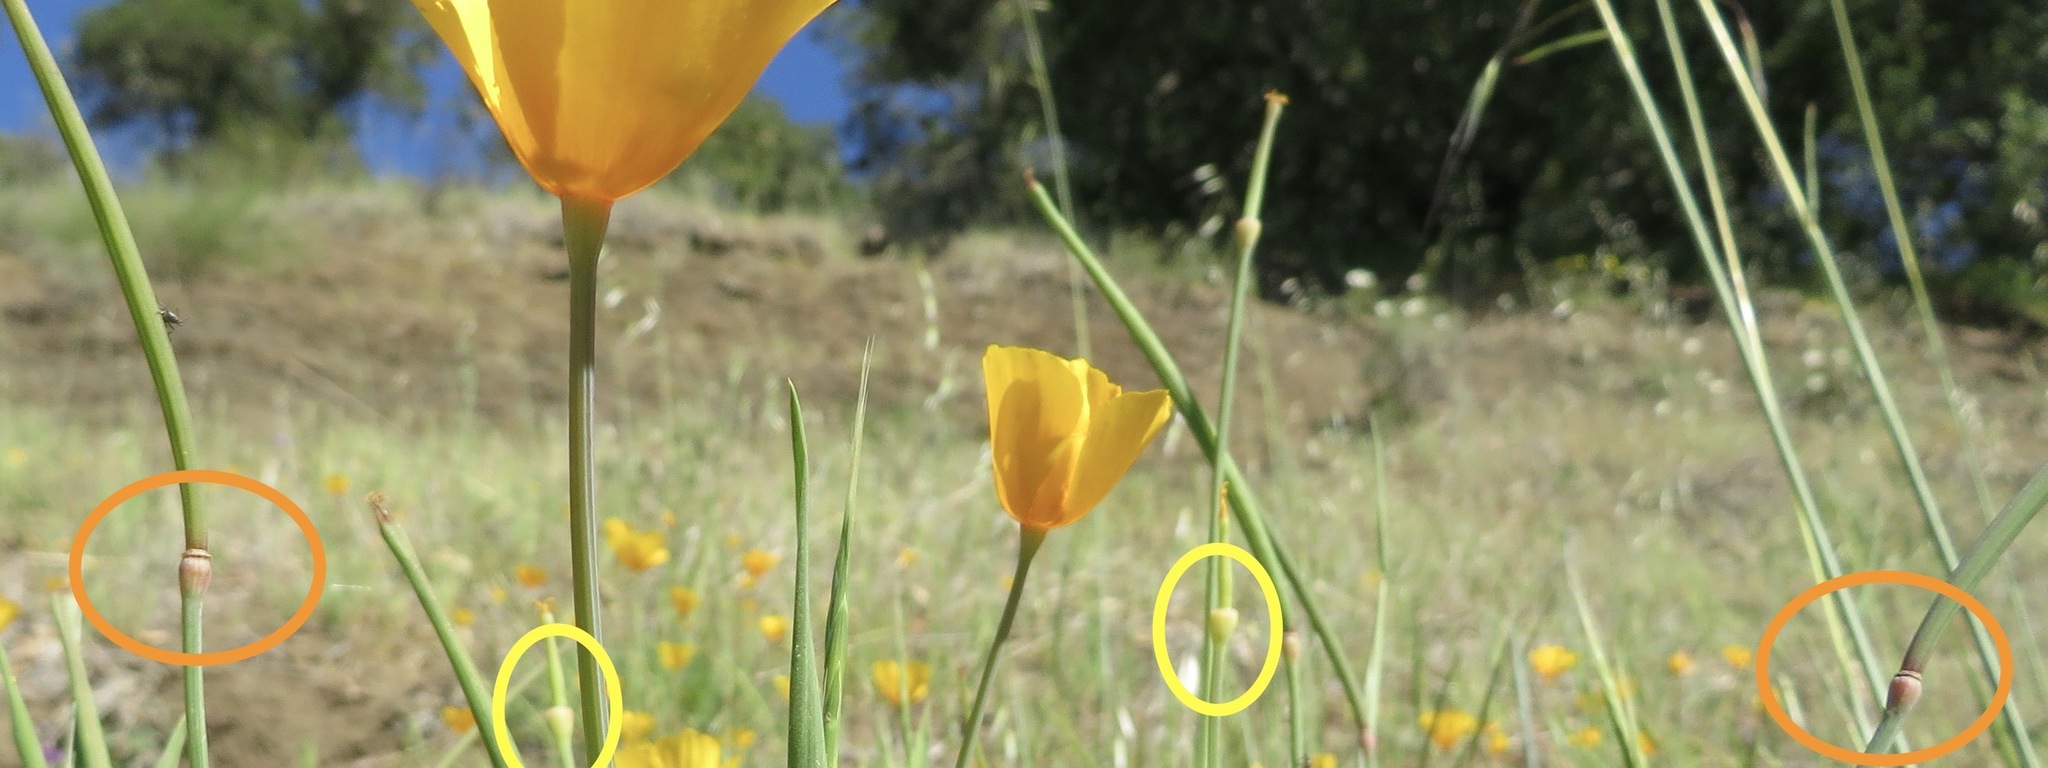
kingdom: Plantae
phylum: Tracheophyta
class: Magnoliopsida
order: Ranunculales
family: Papaveraceae
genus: Eschscholzia
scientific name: Eschscholzia caespitosa
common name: Tufted california-poppy
